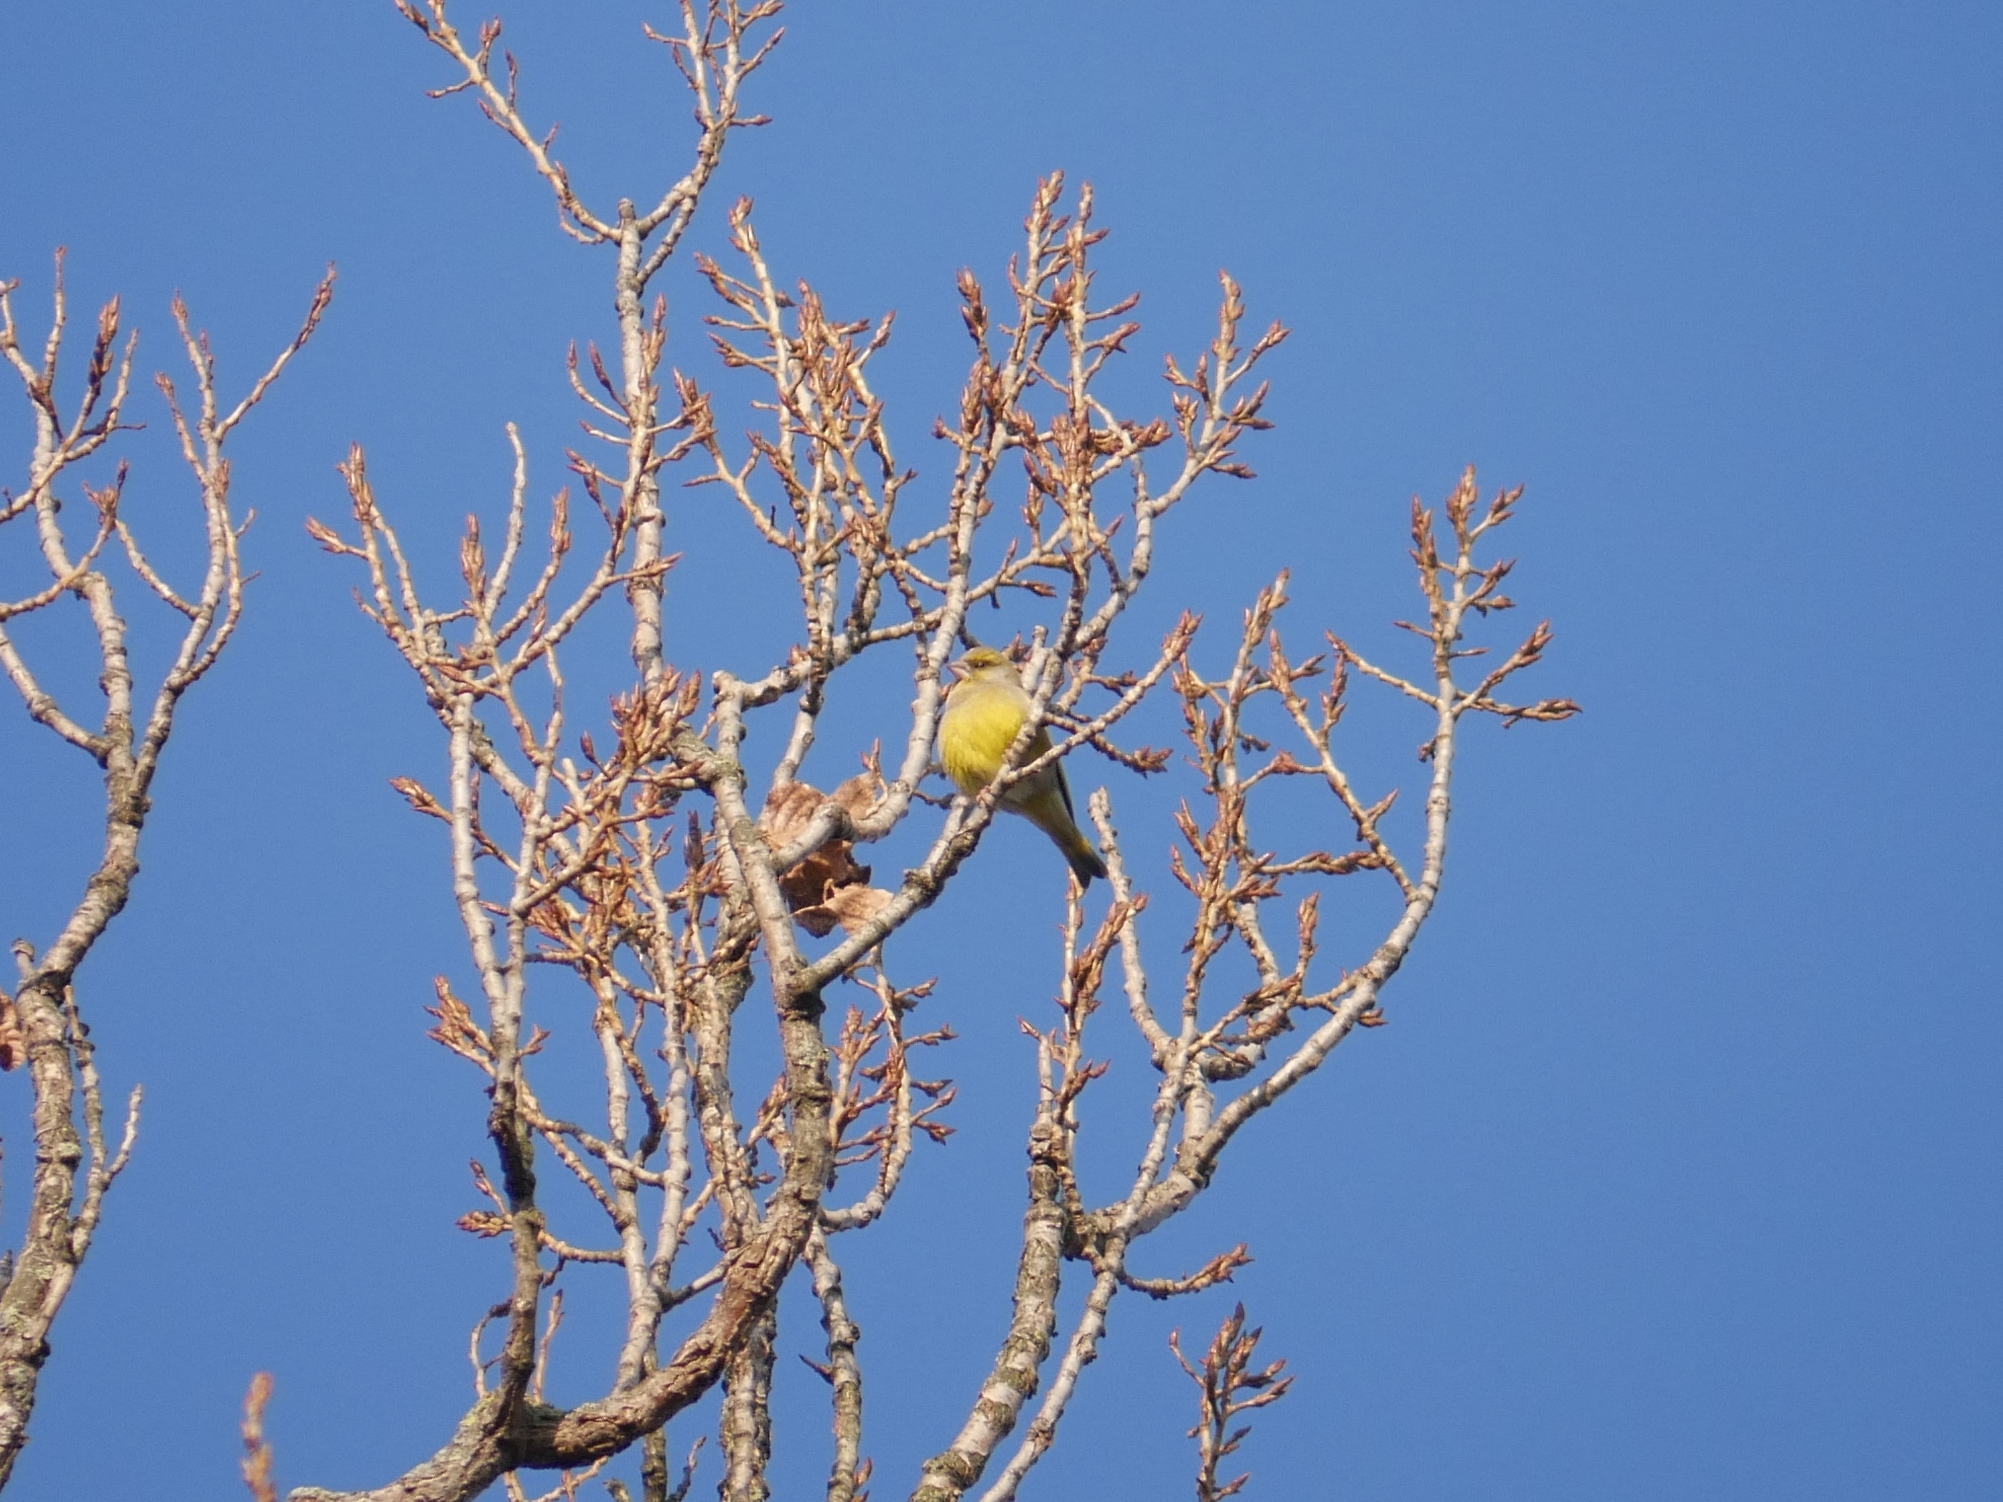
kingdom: Plantae
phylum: Tracheophyta
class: Liliopsida
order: Poales
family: Poaceae
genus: Chloris
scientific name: Chloris chloris
